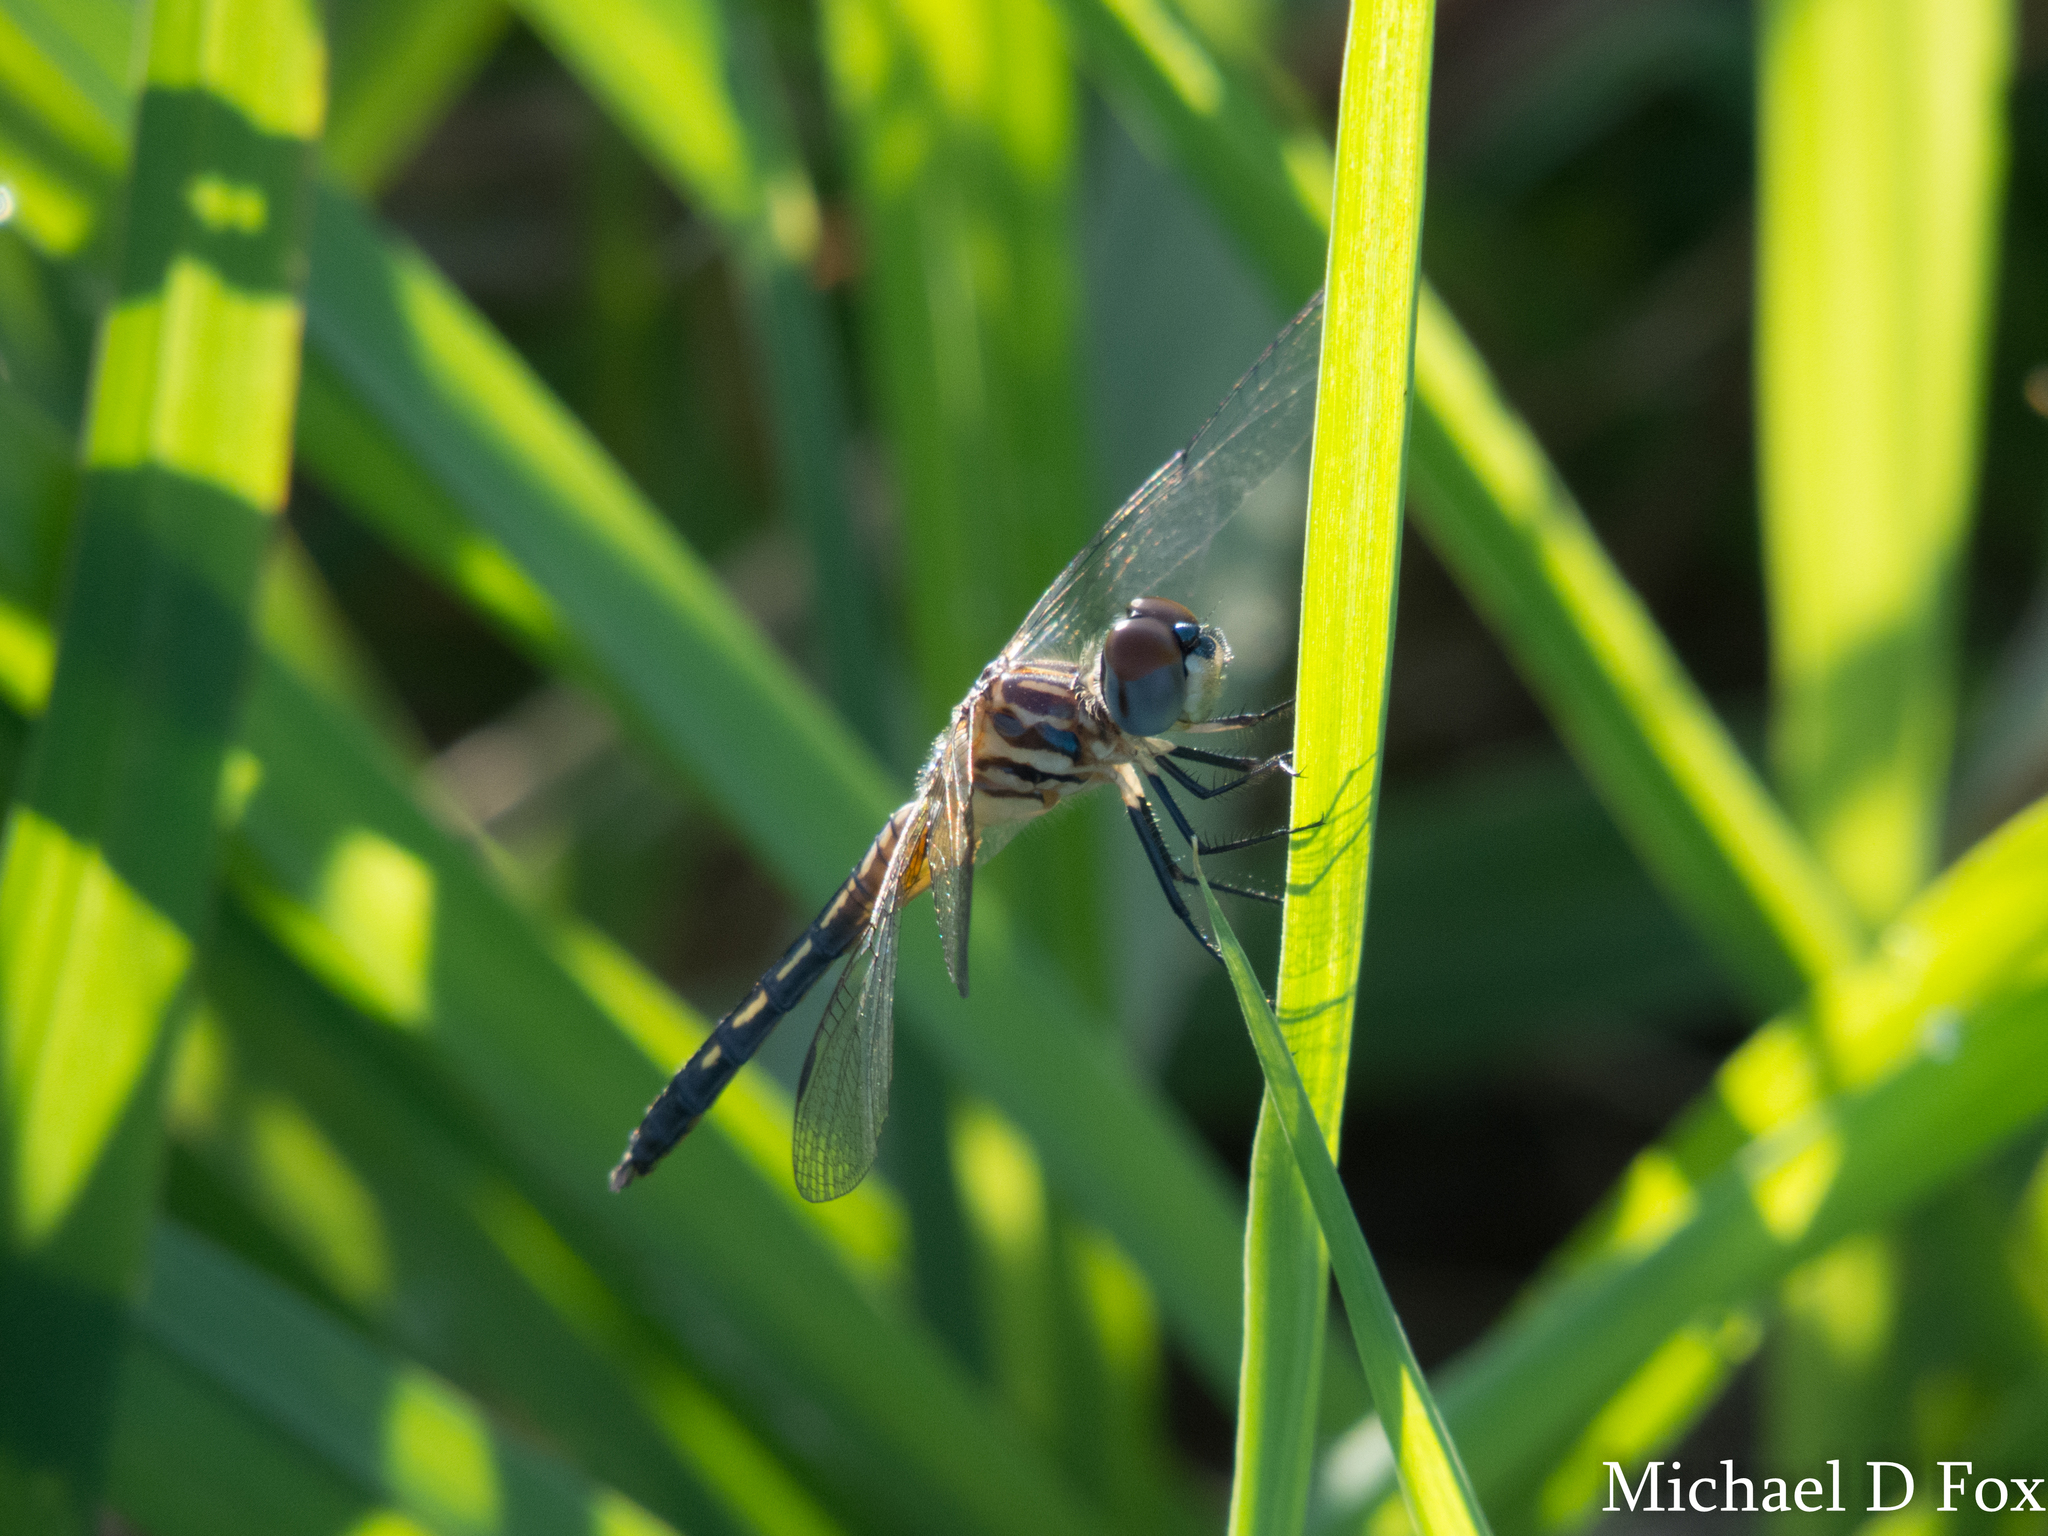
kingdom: Animalia
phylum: Arthropoda
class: Insecta
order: Odonata
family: Libellulidae
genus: Pachydiplax
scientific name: Pachydiplax longipennis
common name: Blue dasher
